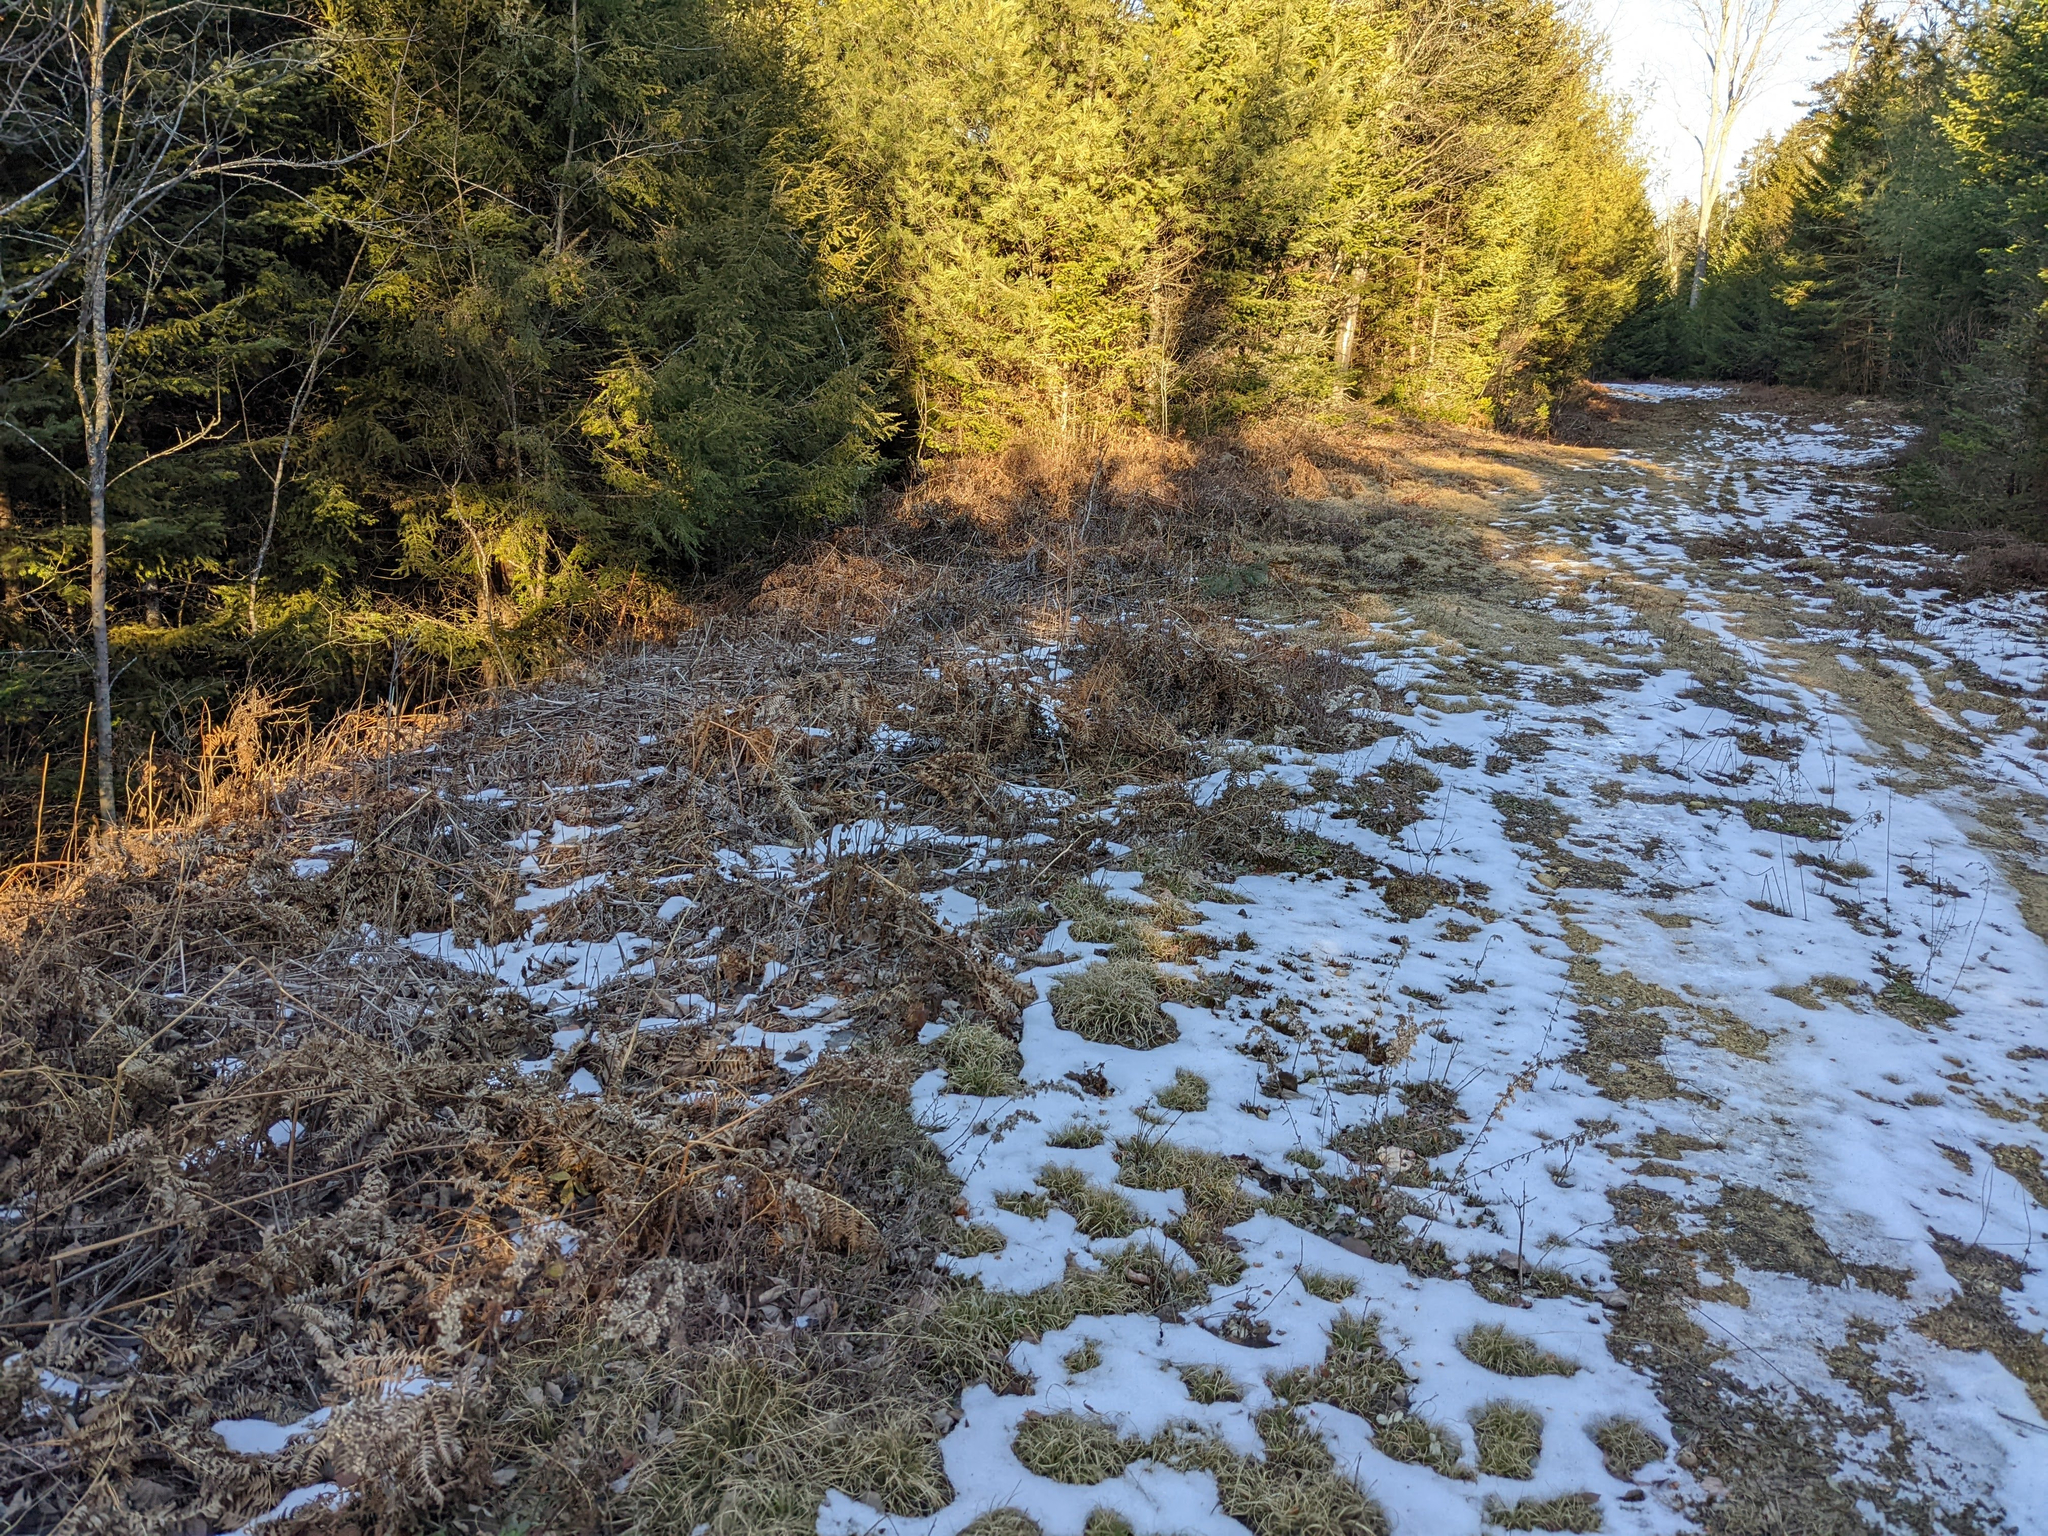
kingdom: Plantae
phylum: Tracheophyta
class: Polypodiopsida
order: Polypodiales
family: Dennstaedtiaceae
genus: Pteridium
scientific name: Pteridium aquilinum
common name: Bracken
